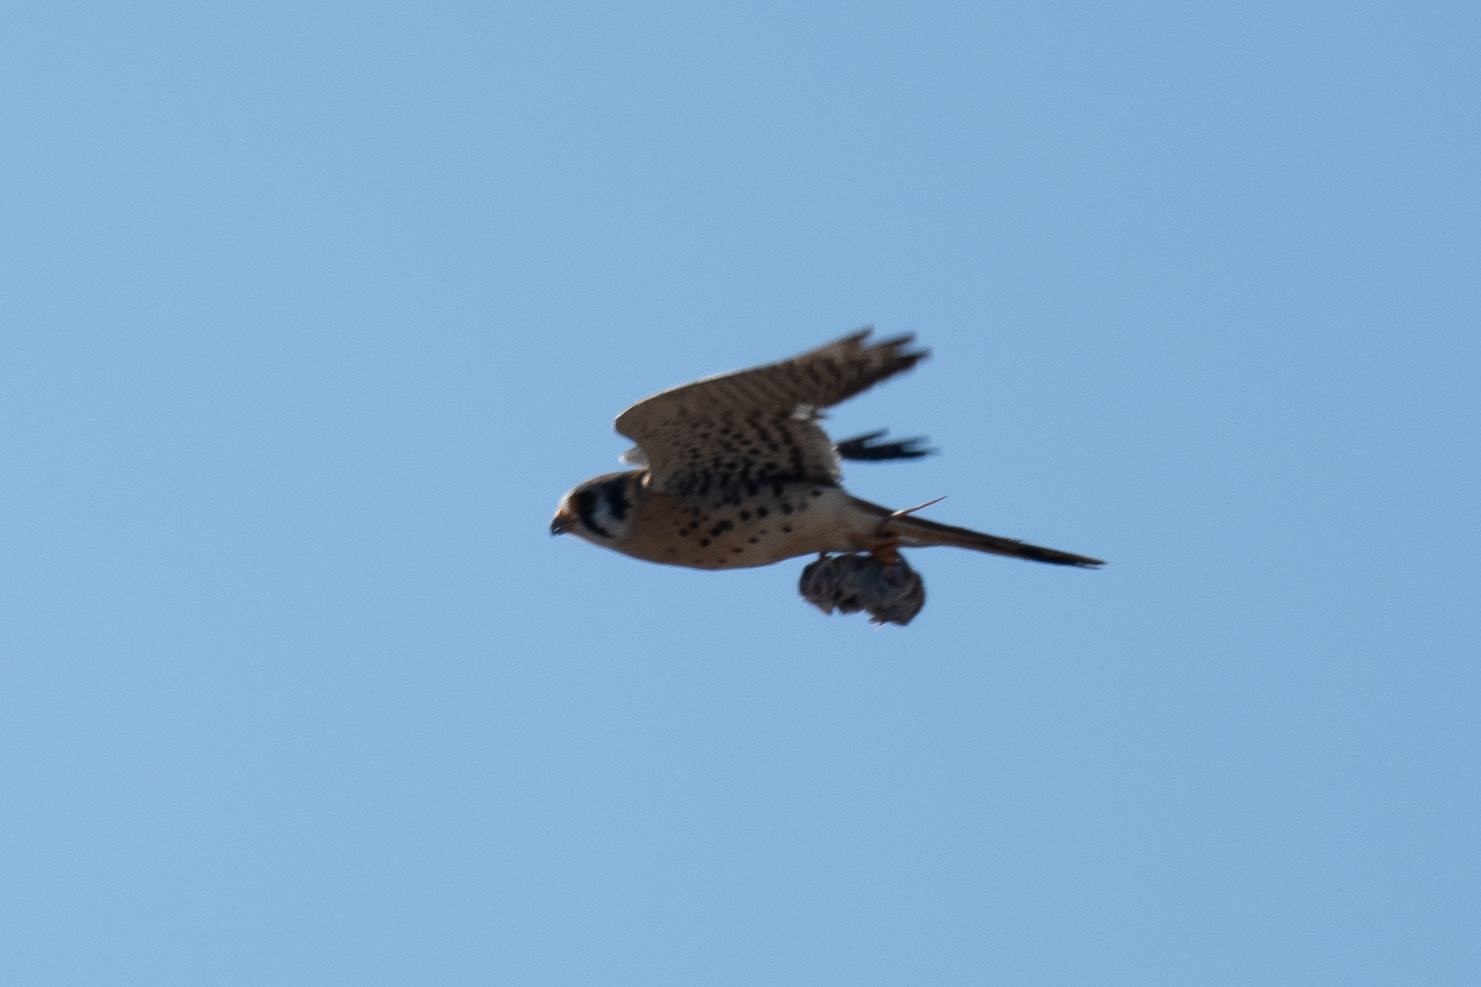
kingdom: Animalia
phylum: Chordata
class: Aves
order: Falconiformes
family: Falconidae
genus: Falco
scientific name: Falco sparverius
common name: American kestrel
